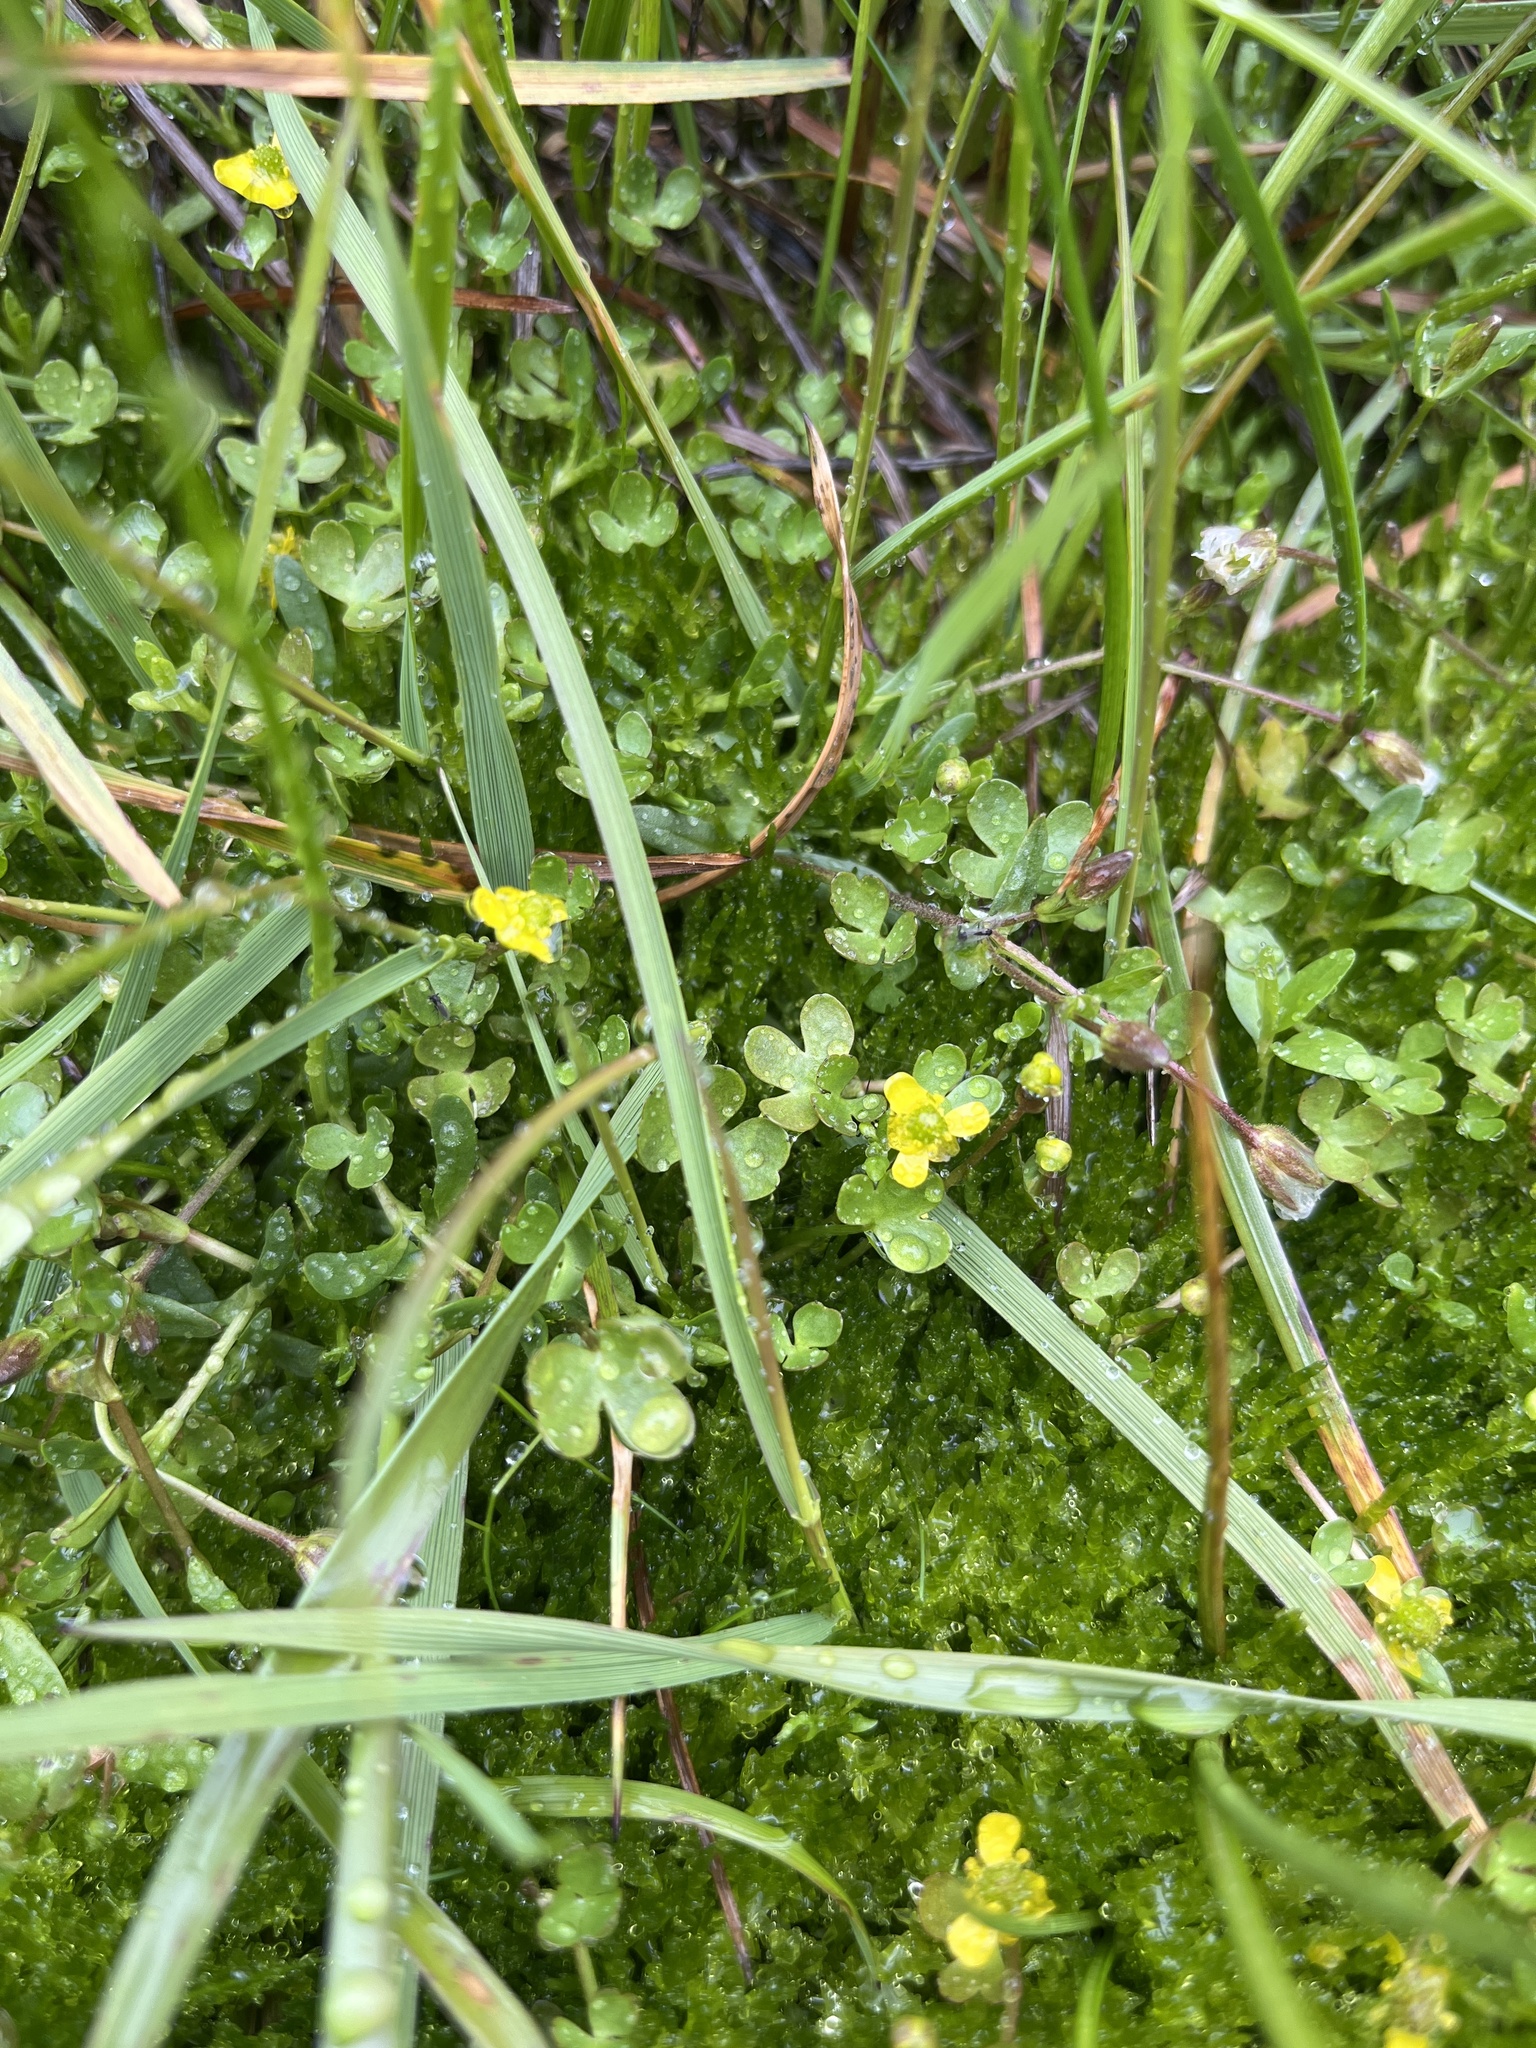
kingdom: Plantae
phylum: Tracheophyta
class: Magnoliopsida
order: Ranunculales
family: Ranunculaceae
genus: Ranunculus
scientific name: Ranunculus hyperboreus
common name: Arctic buttercup
